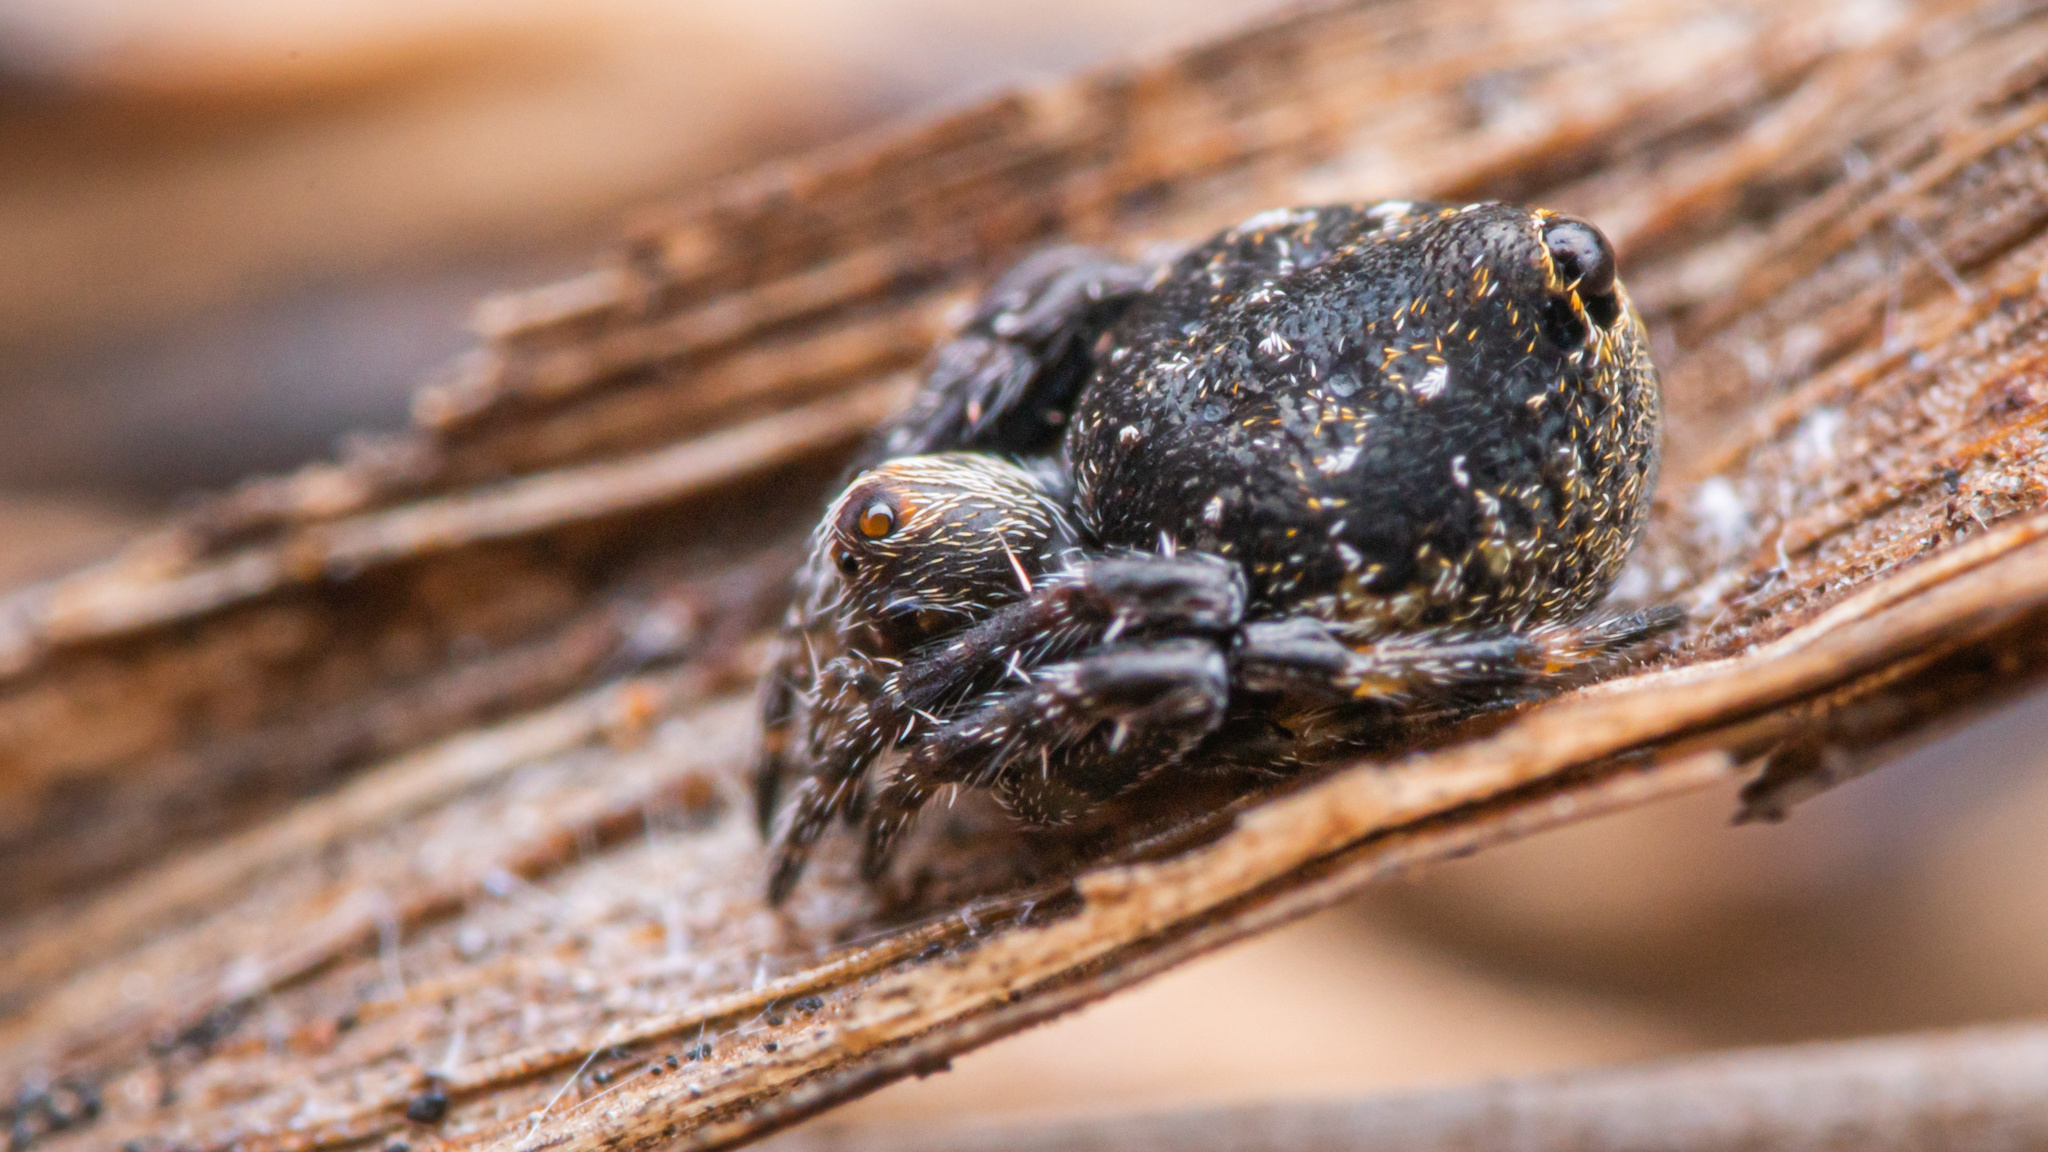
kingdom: Animalia
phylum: Arthropoda
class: Arachnida
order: Araneae
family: Araneidae
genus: Eriovixia
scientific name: Eriovixia excelsa
